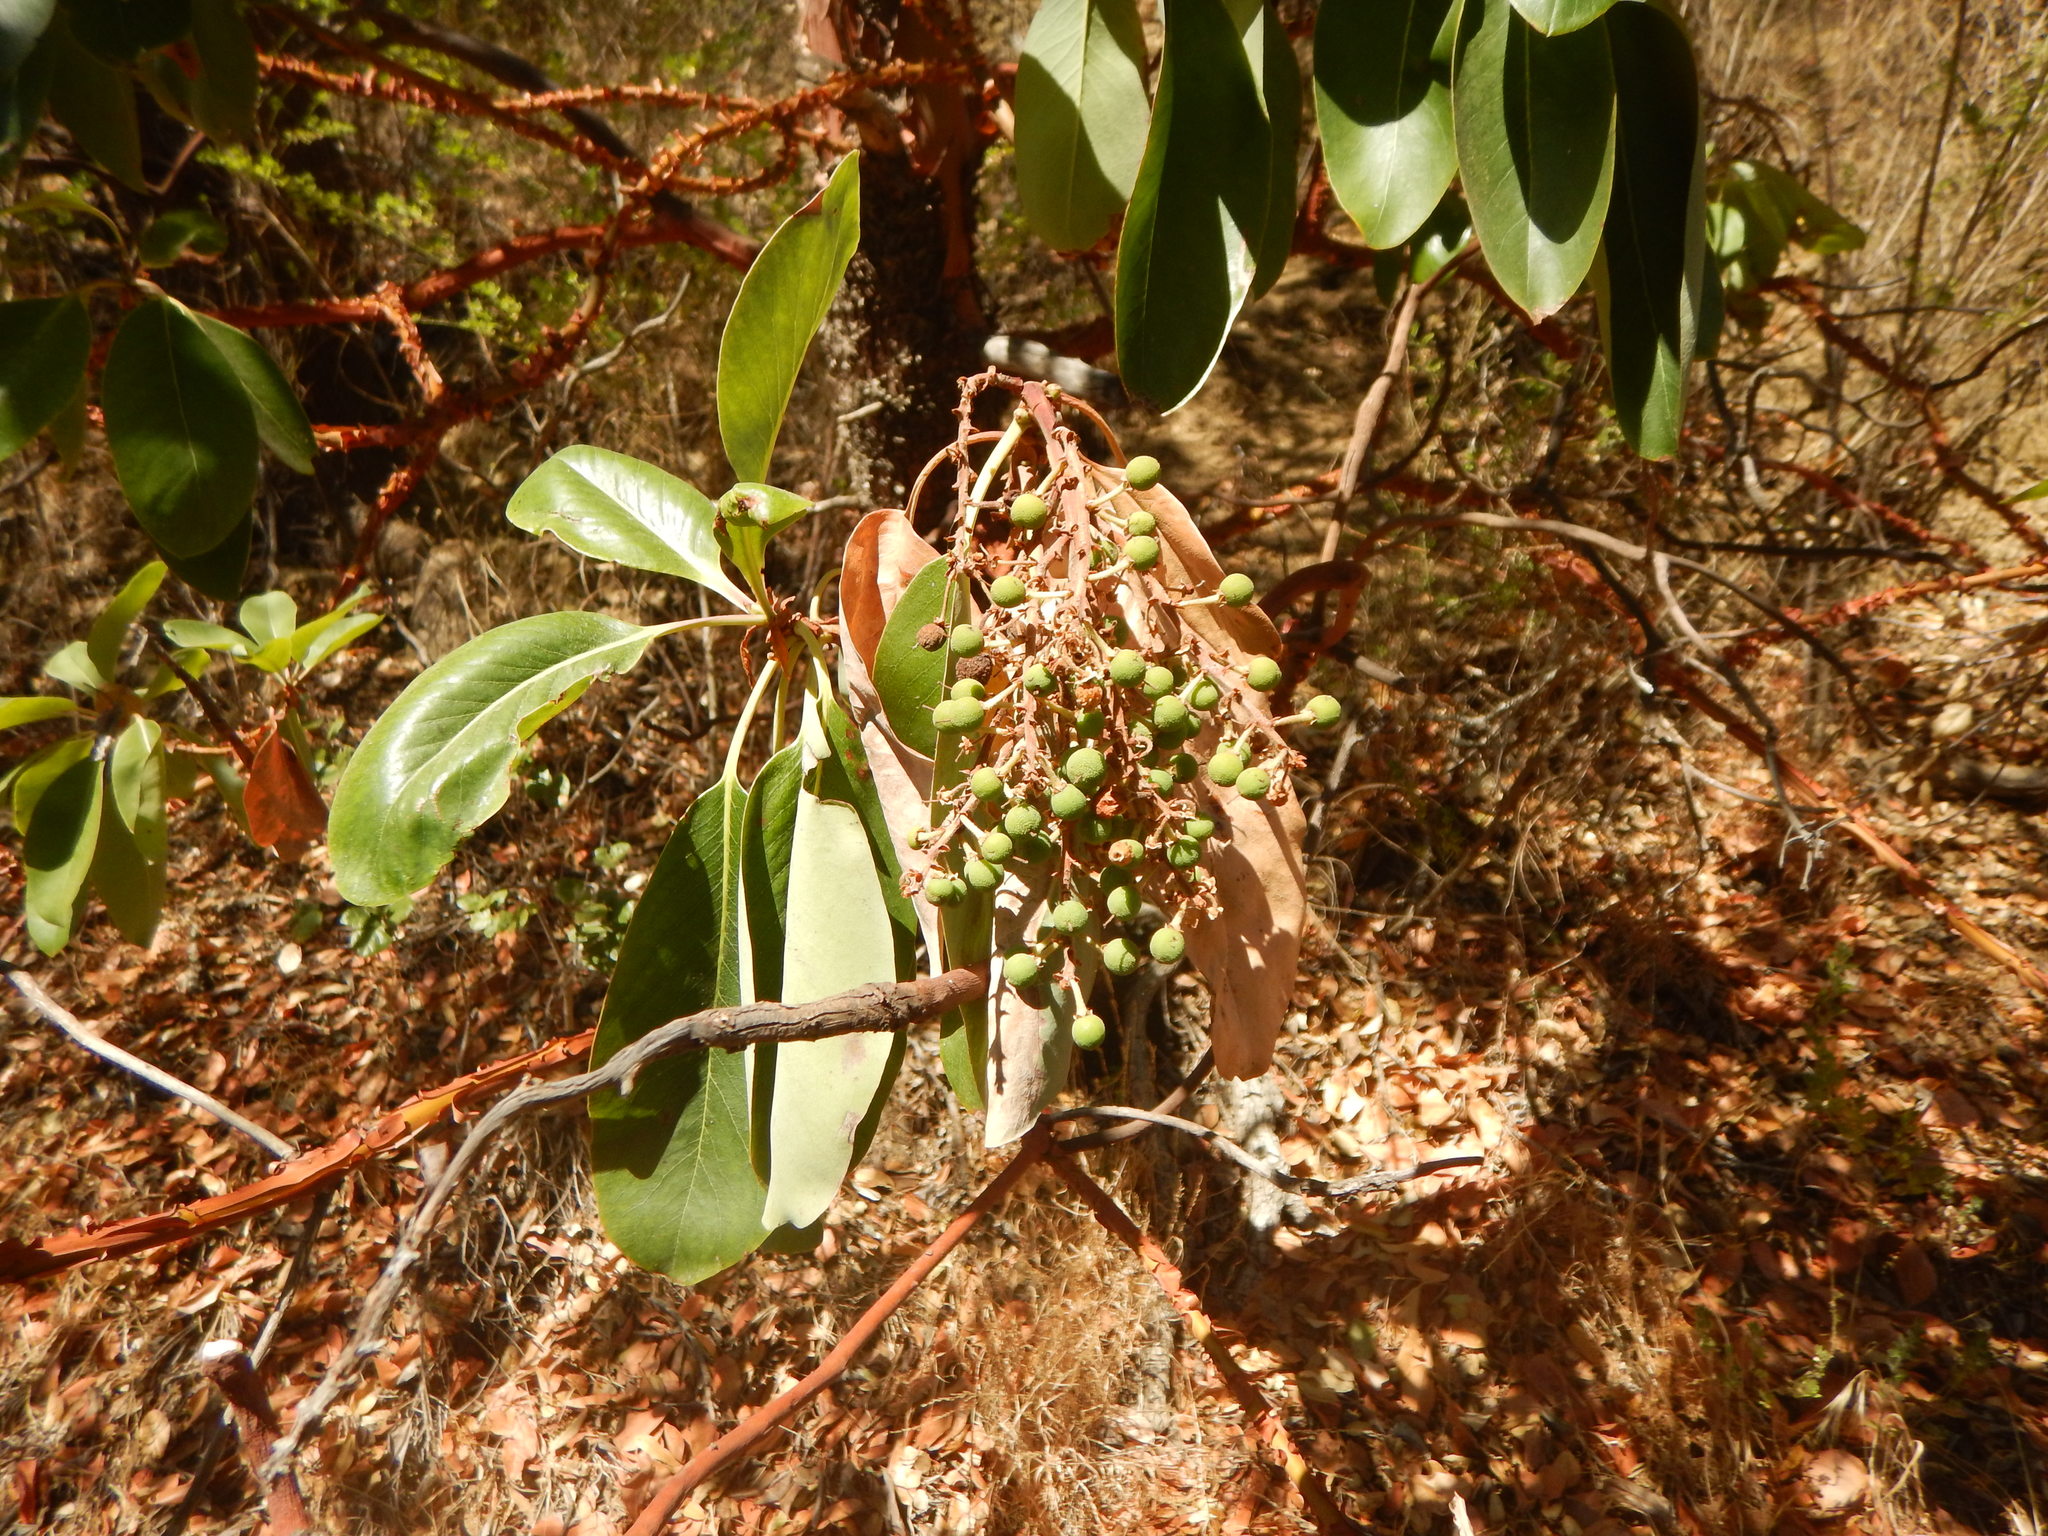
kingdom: Plantae
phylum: Tracheophyta
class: Magnoliopsida
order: Ericales
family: Ericaceae
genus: Arbutus
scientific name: Arbutus menziesii
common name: Pacific madrone
